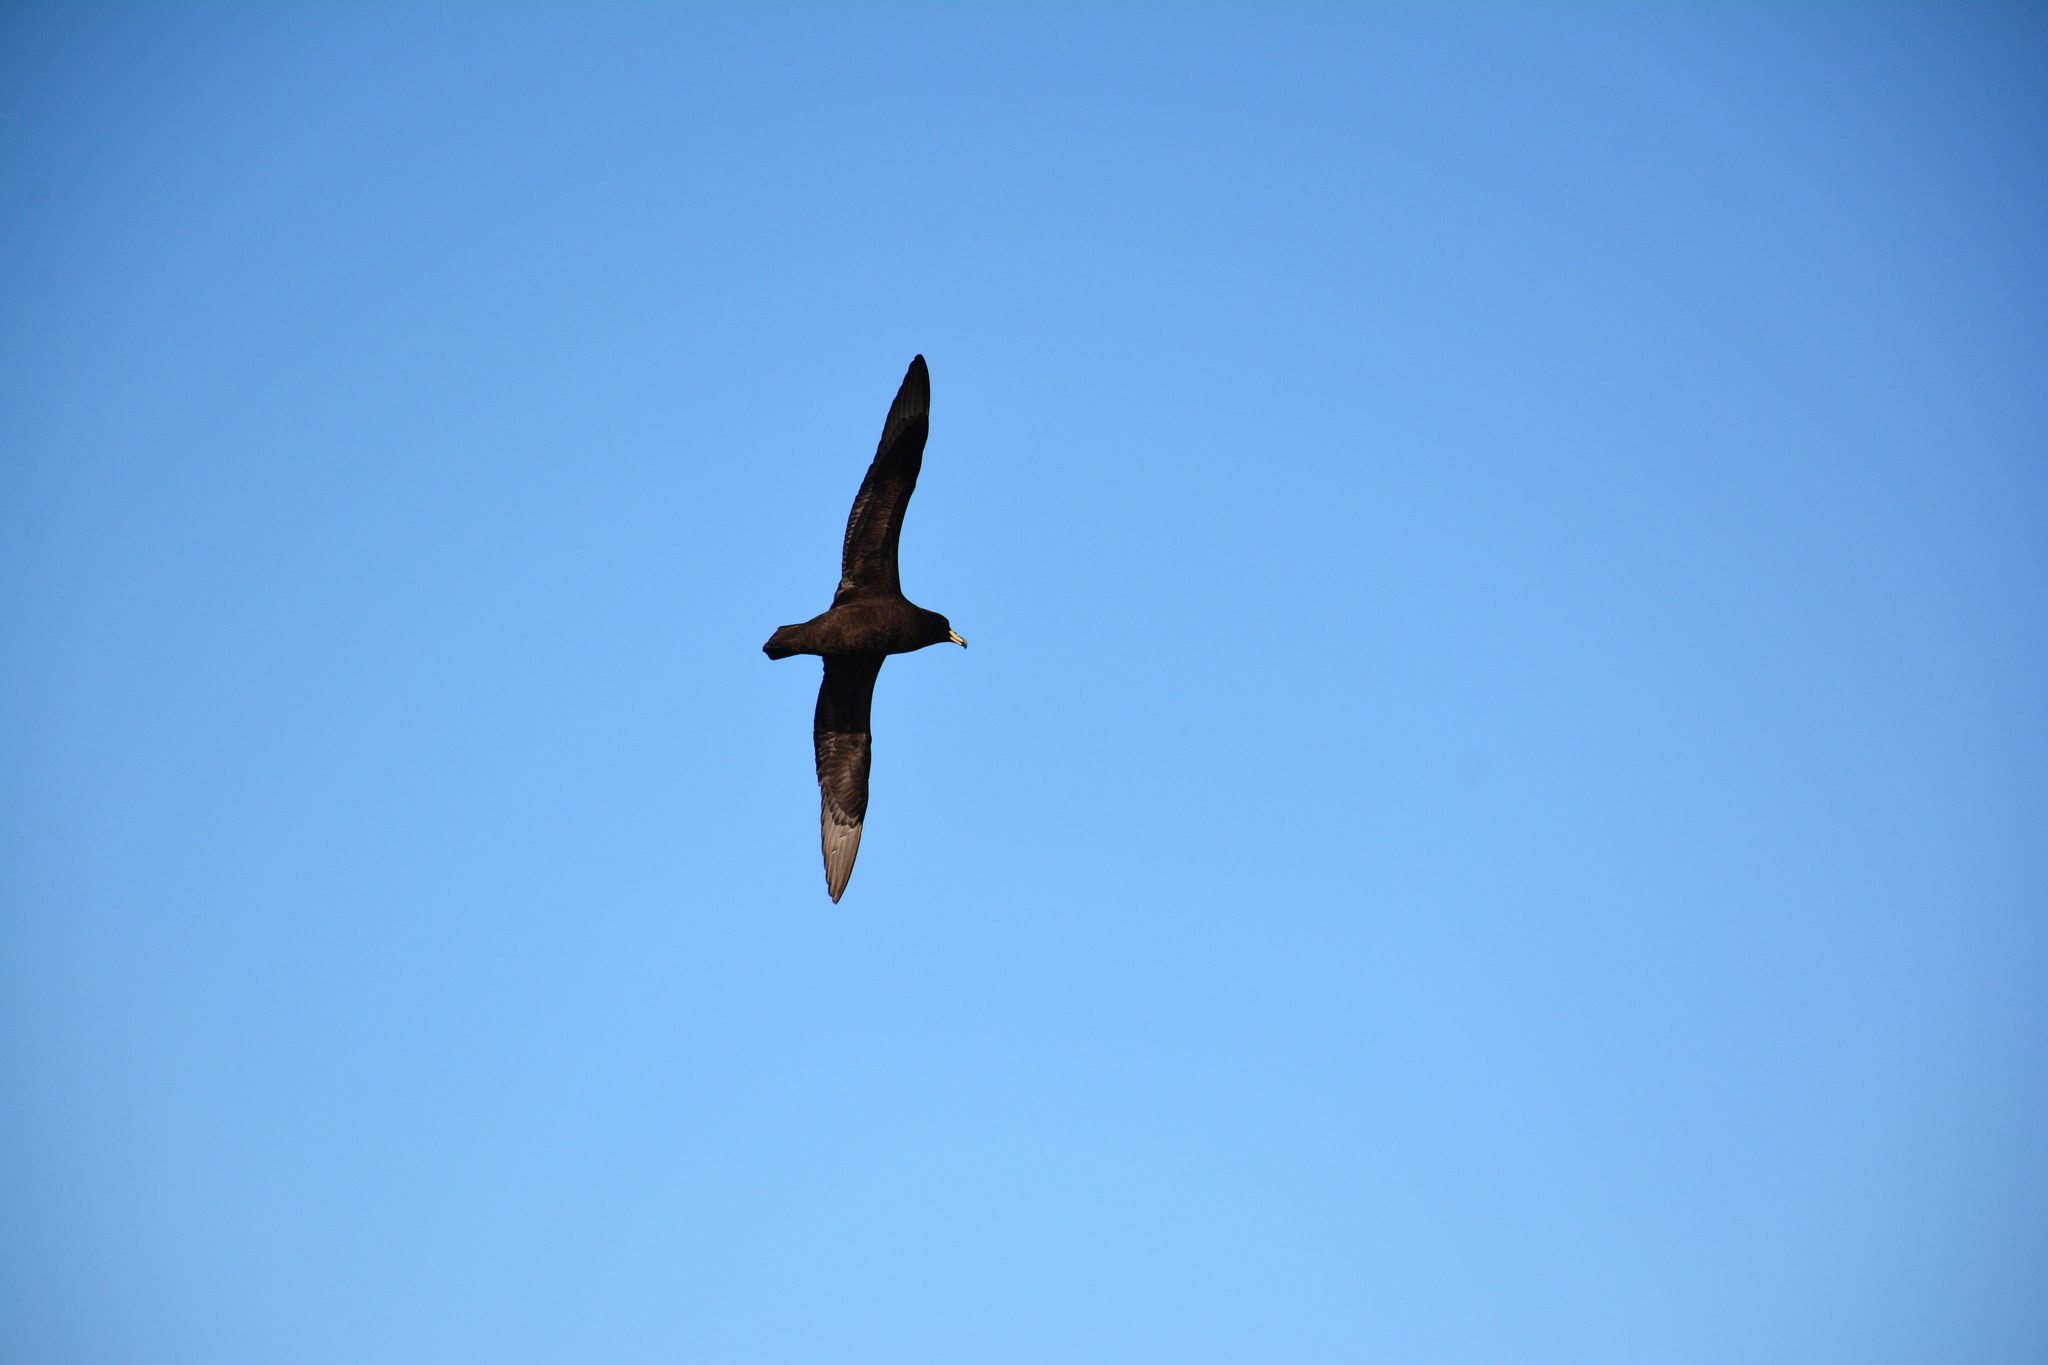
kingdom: Animalia
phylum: Chordata
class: Aves
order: Procellariiformes
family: Procellariidae
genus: Procellaria
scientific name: Procellaria westlandica
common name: Westland petrel
